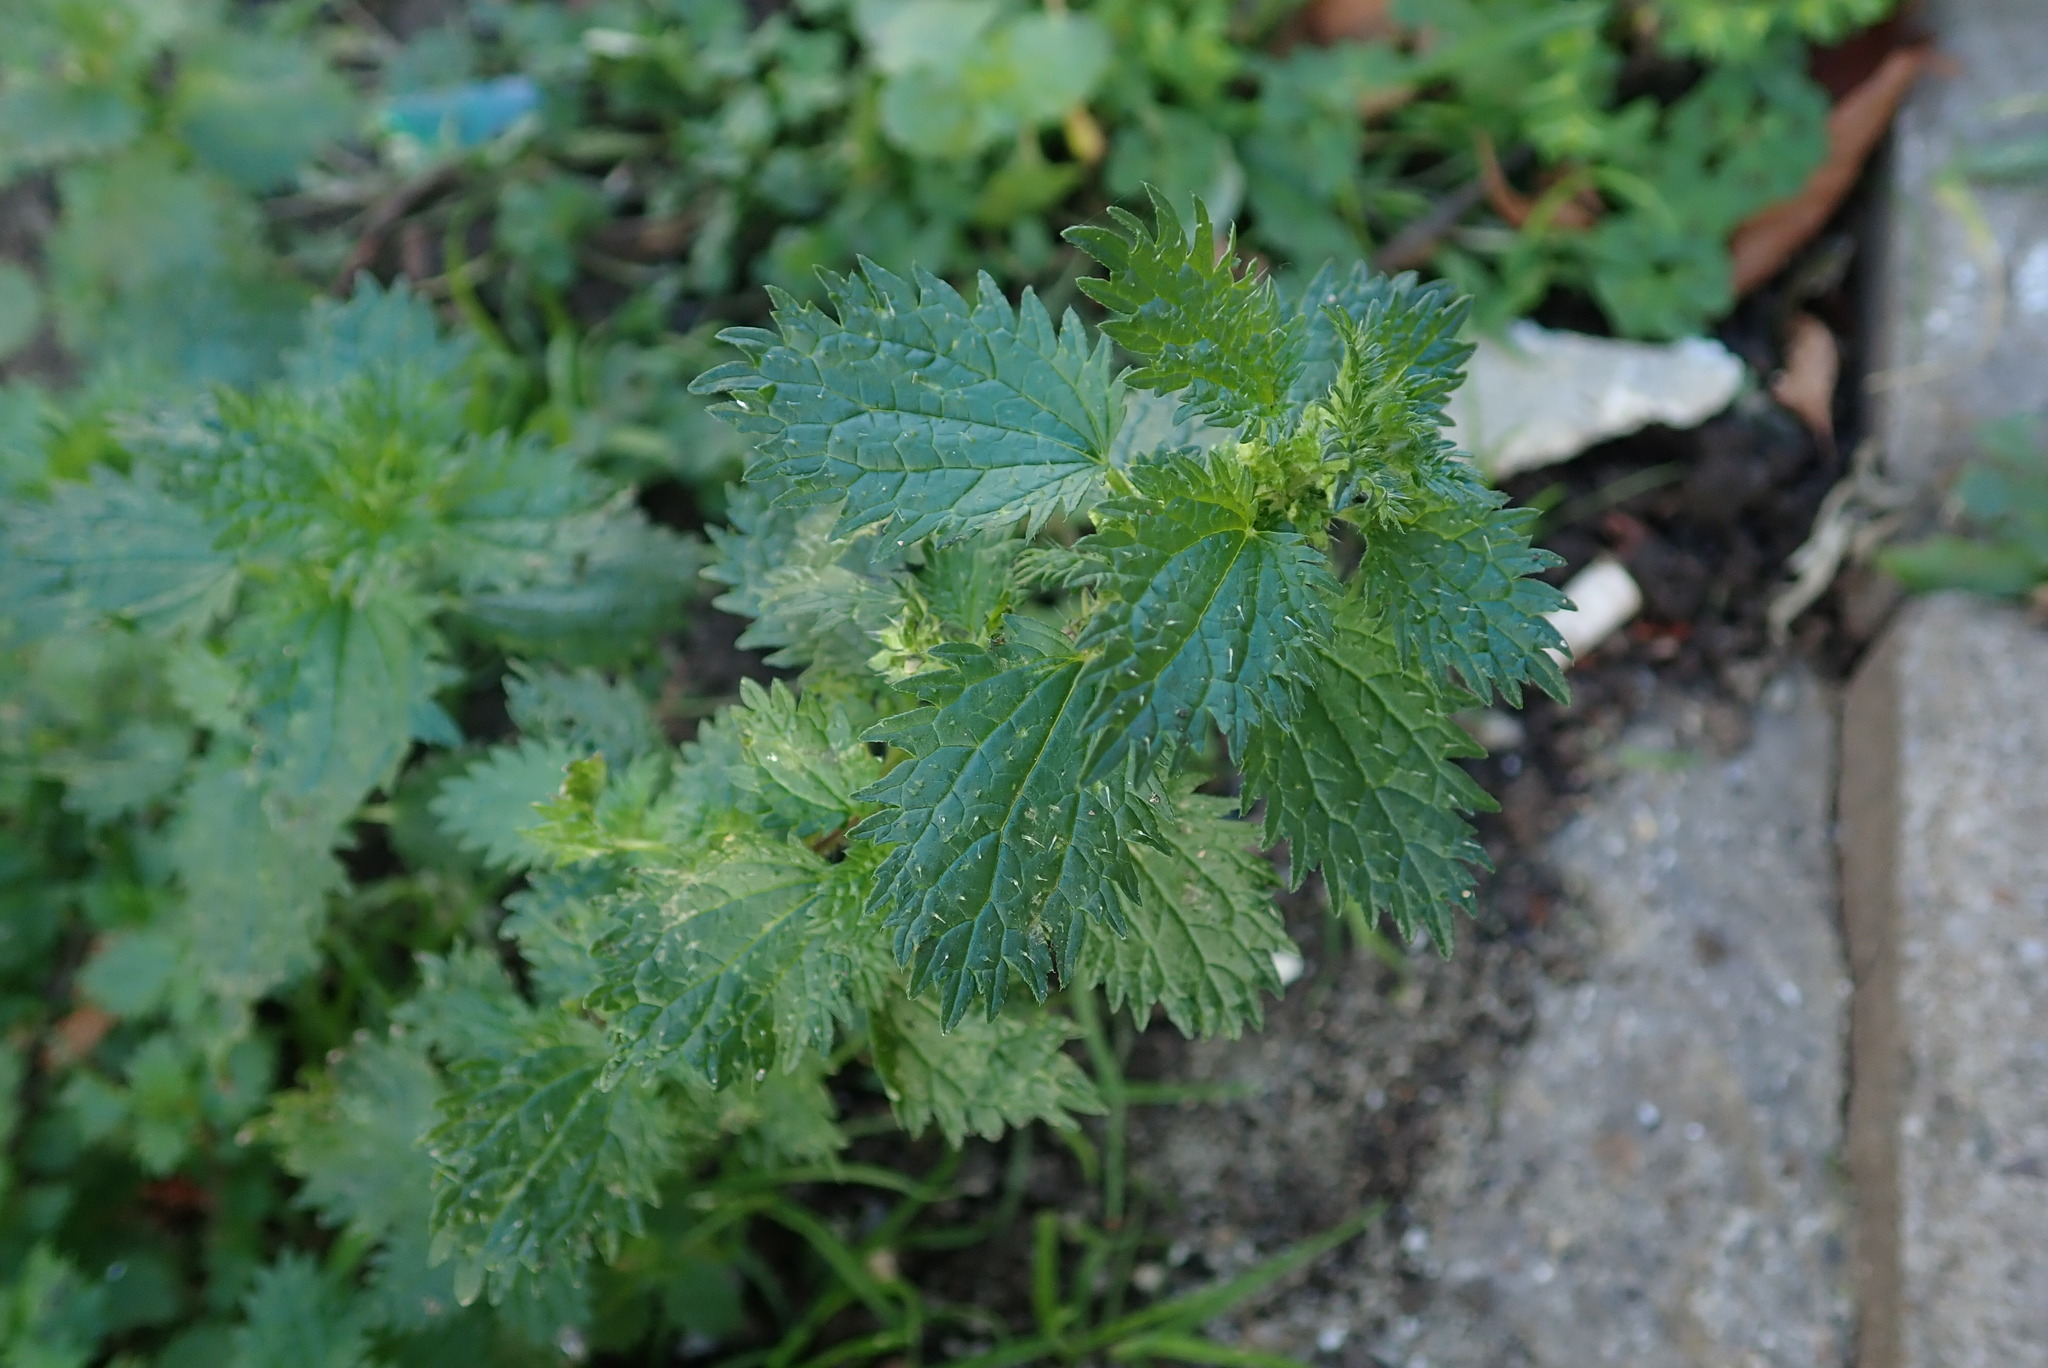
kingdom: Plantae
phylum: Tracheophyta
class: Magnoliopsida
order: Rosales
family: Urticaceae
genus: Urtica
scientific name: Urtica urens
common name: Dwarf nettle
